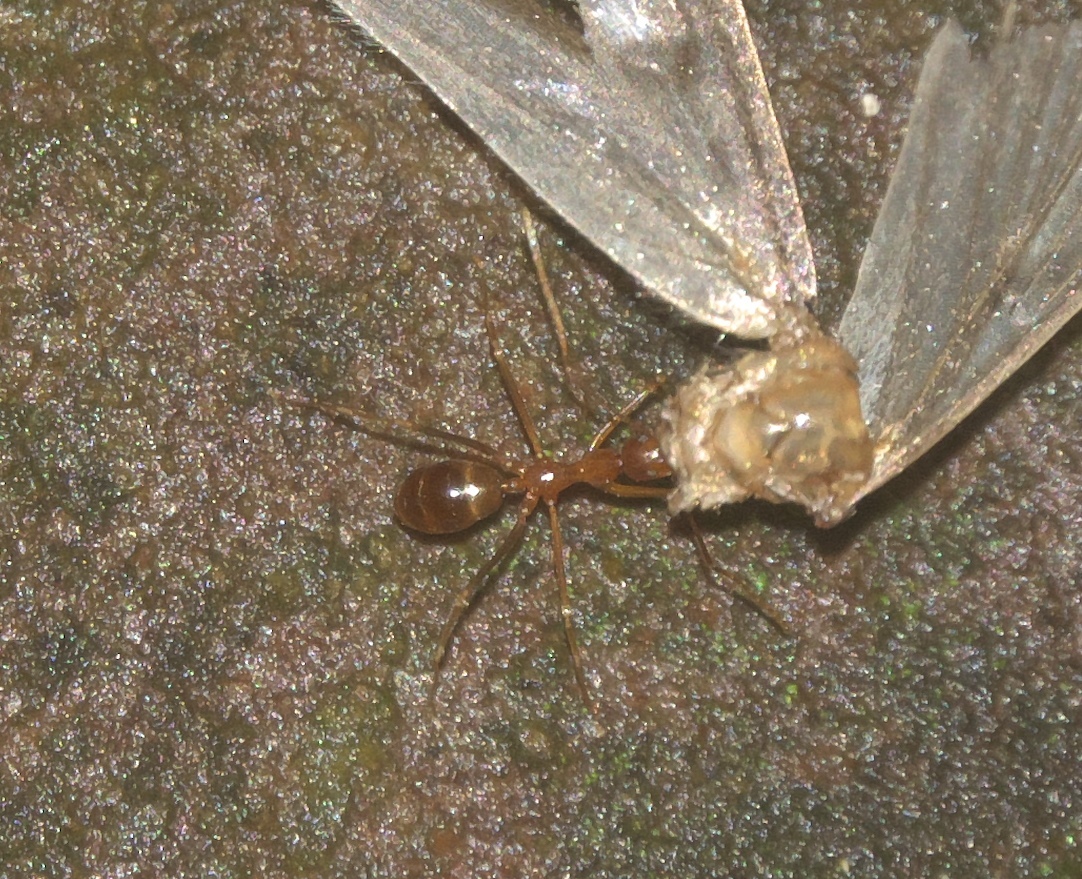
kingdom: Animalia
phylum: Arthropoda
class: Insecta
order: Hymenoptera
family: Formicidae
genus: Anoplolepis
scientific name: Anoplolepis gracilipes
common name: Ant
